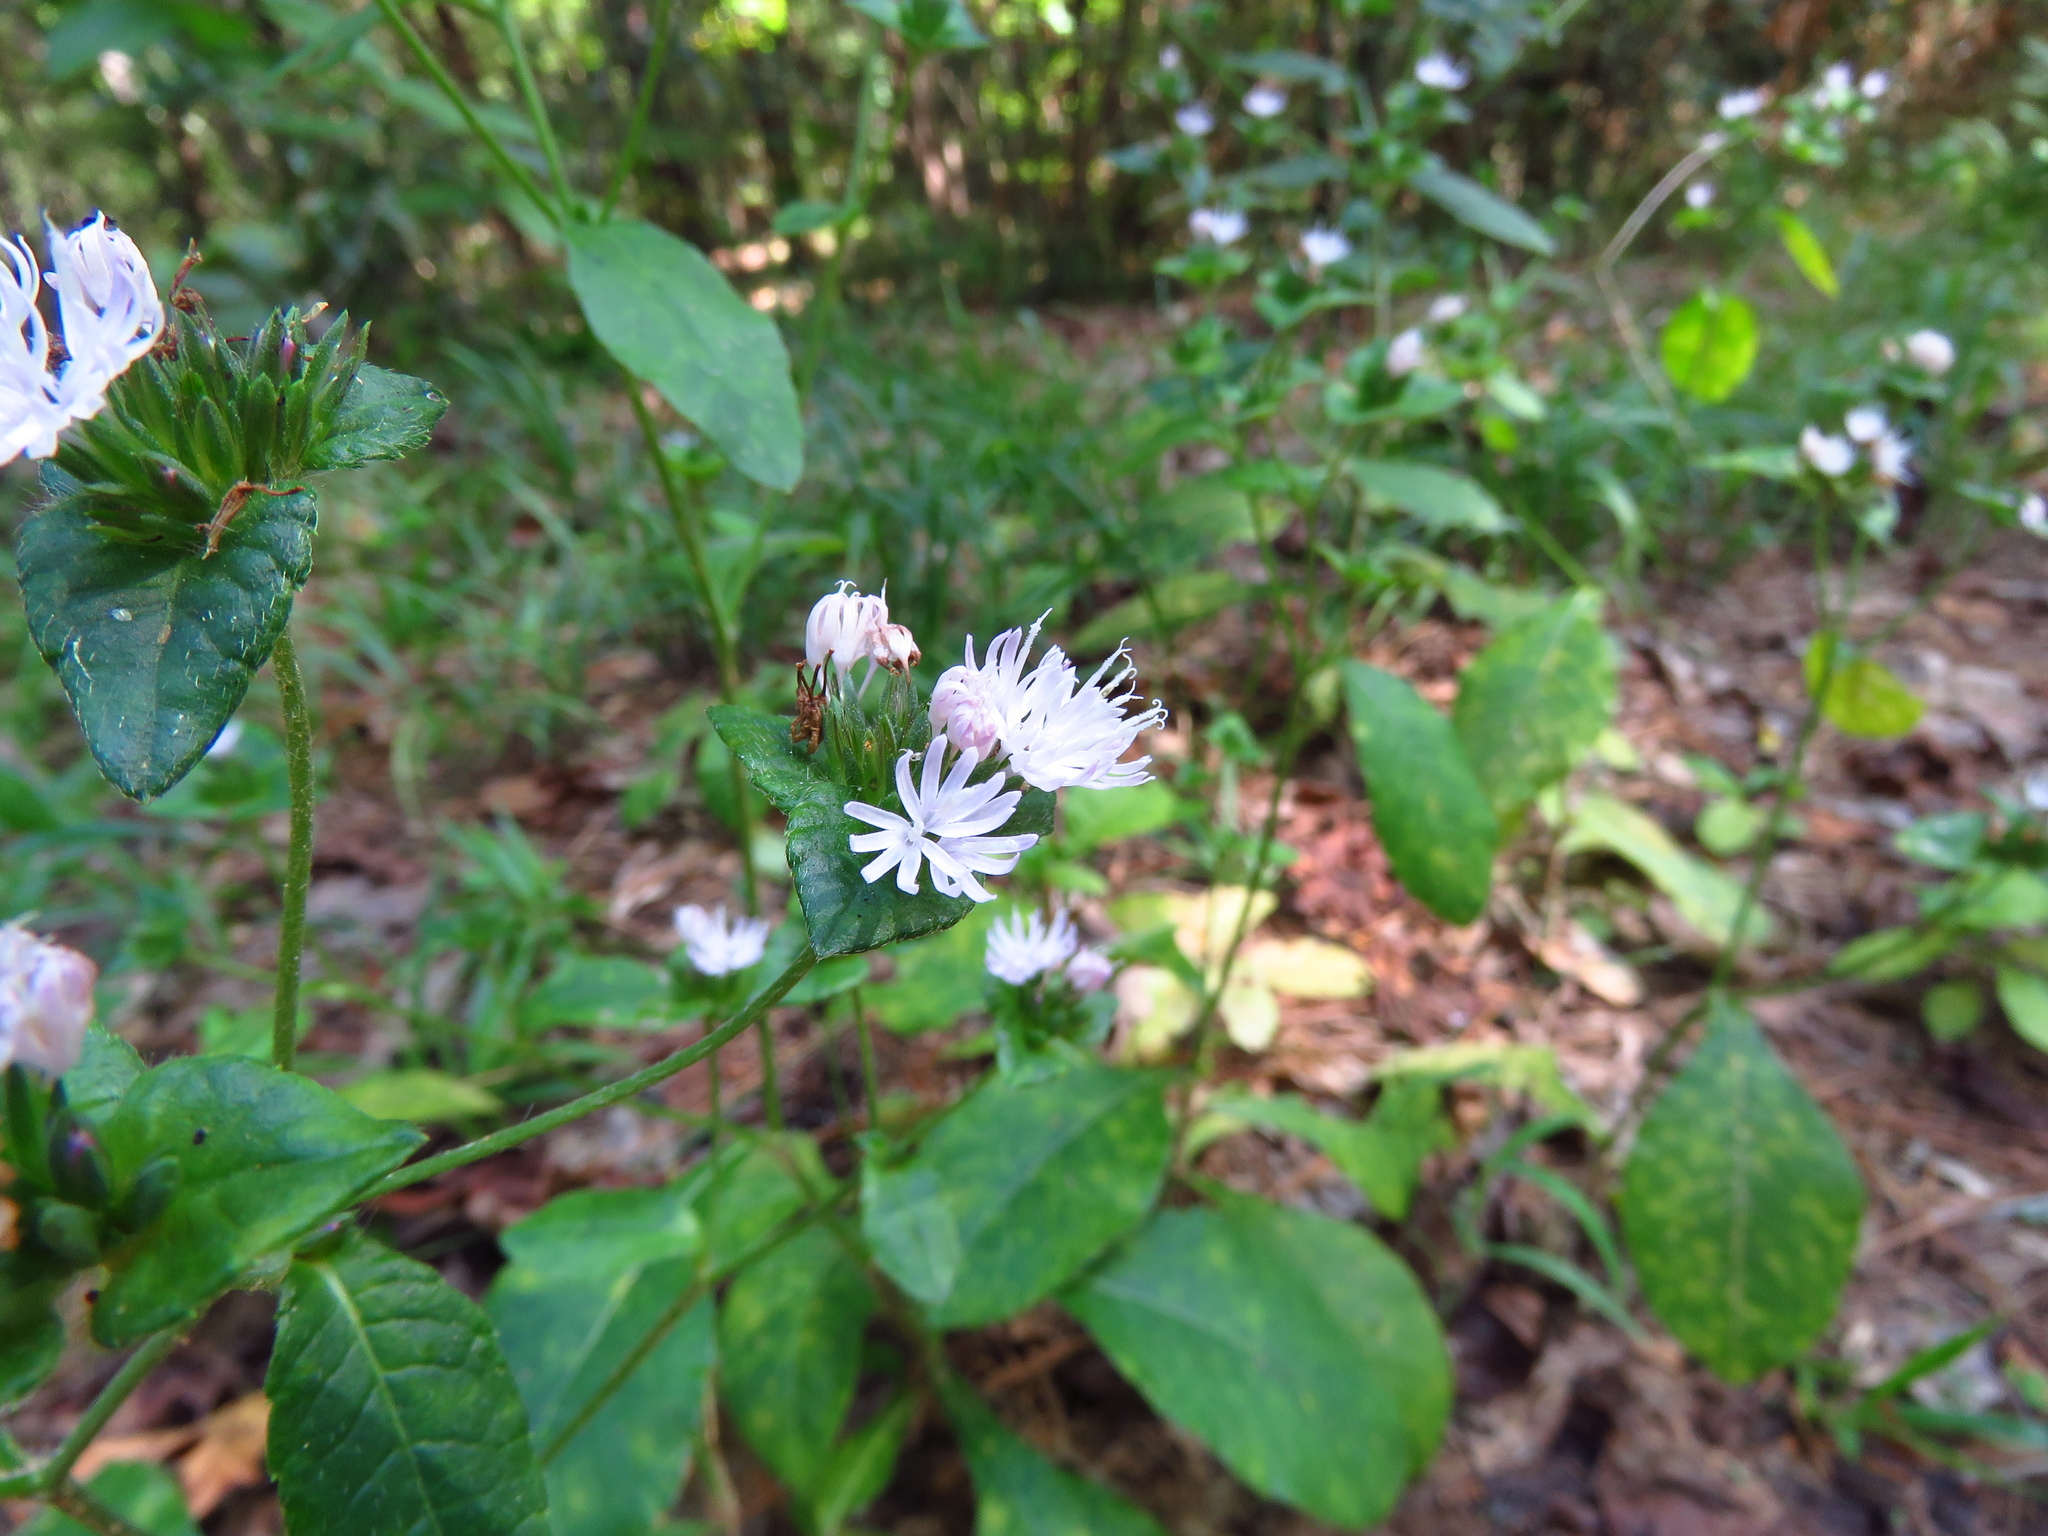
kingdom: Plantae
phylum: Tracheophyta
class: Magnoliopsida
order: Asterales
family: Asteraceae
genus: Elephantopus
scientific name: Elephantopus carolinianus
